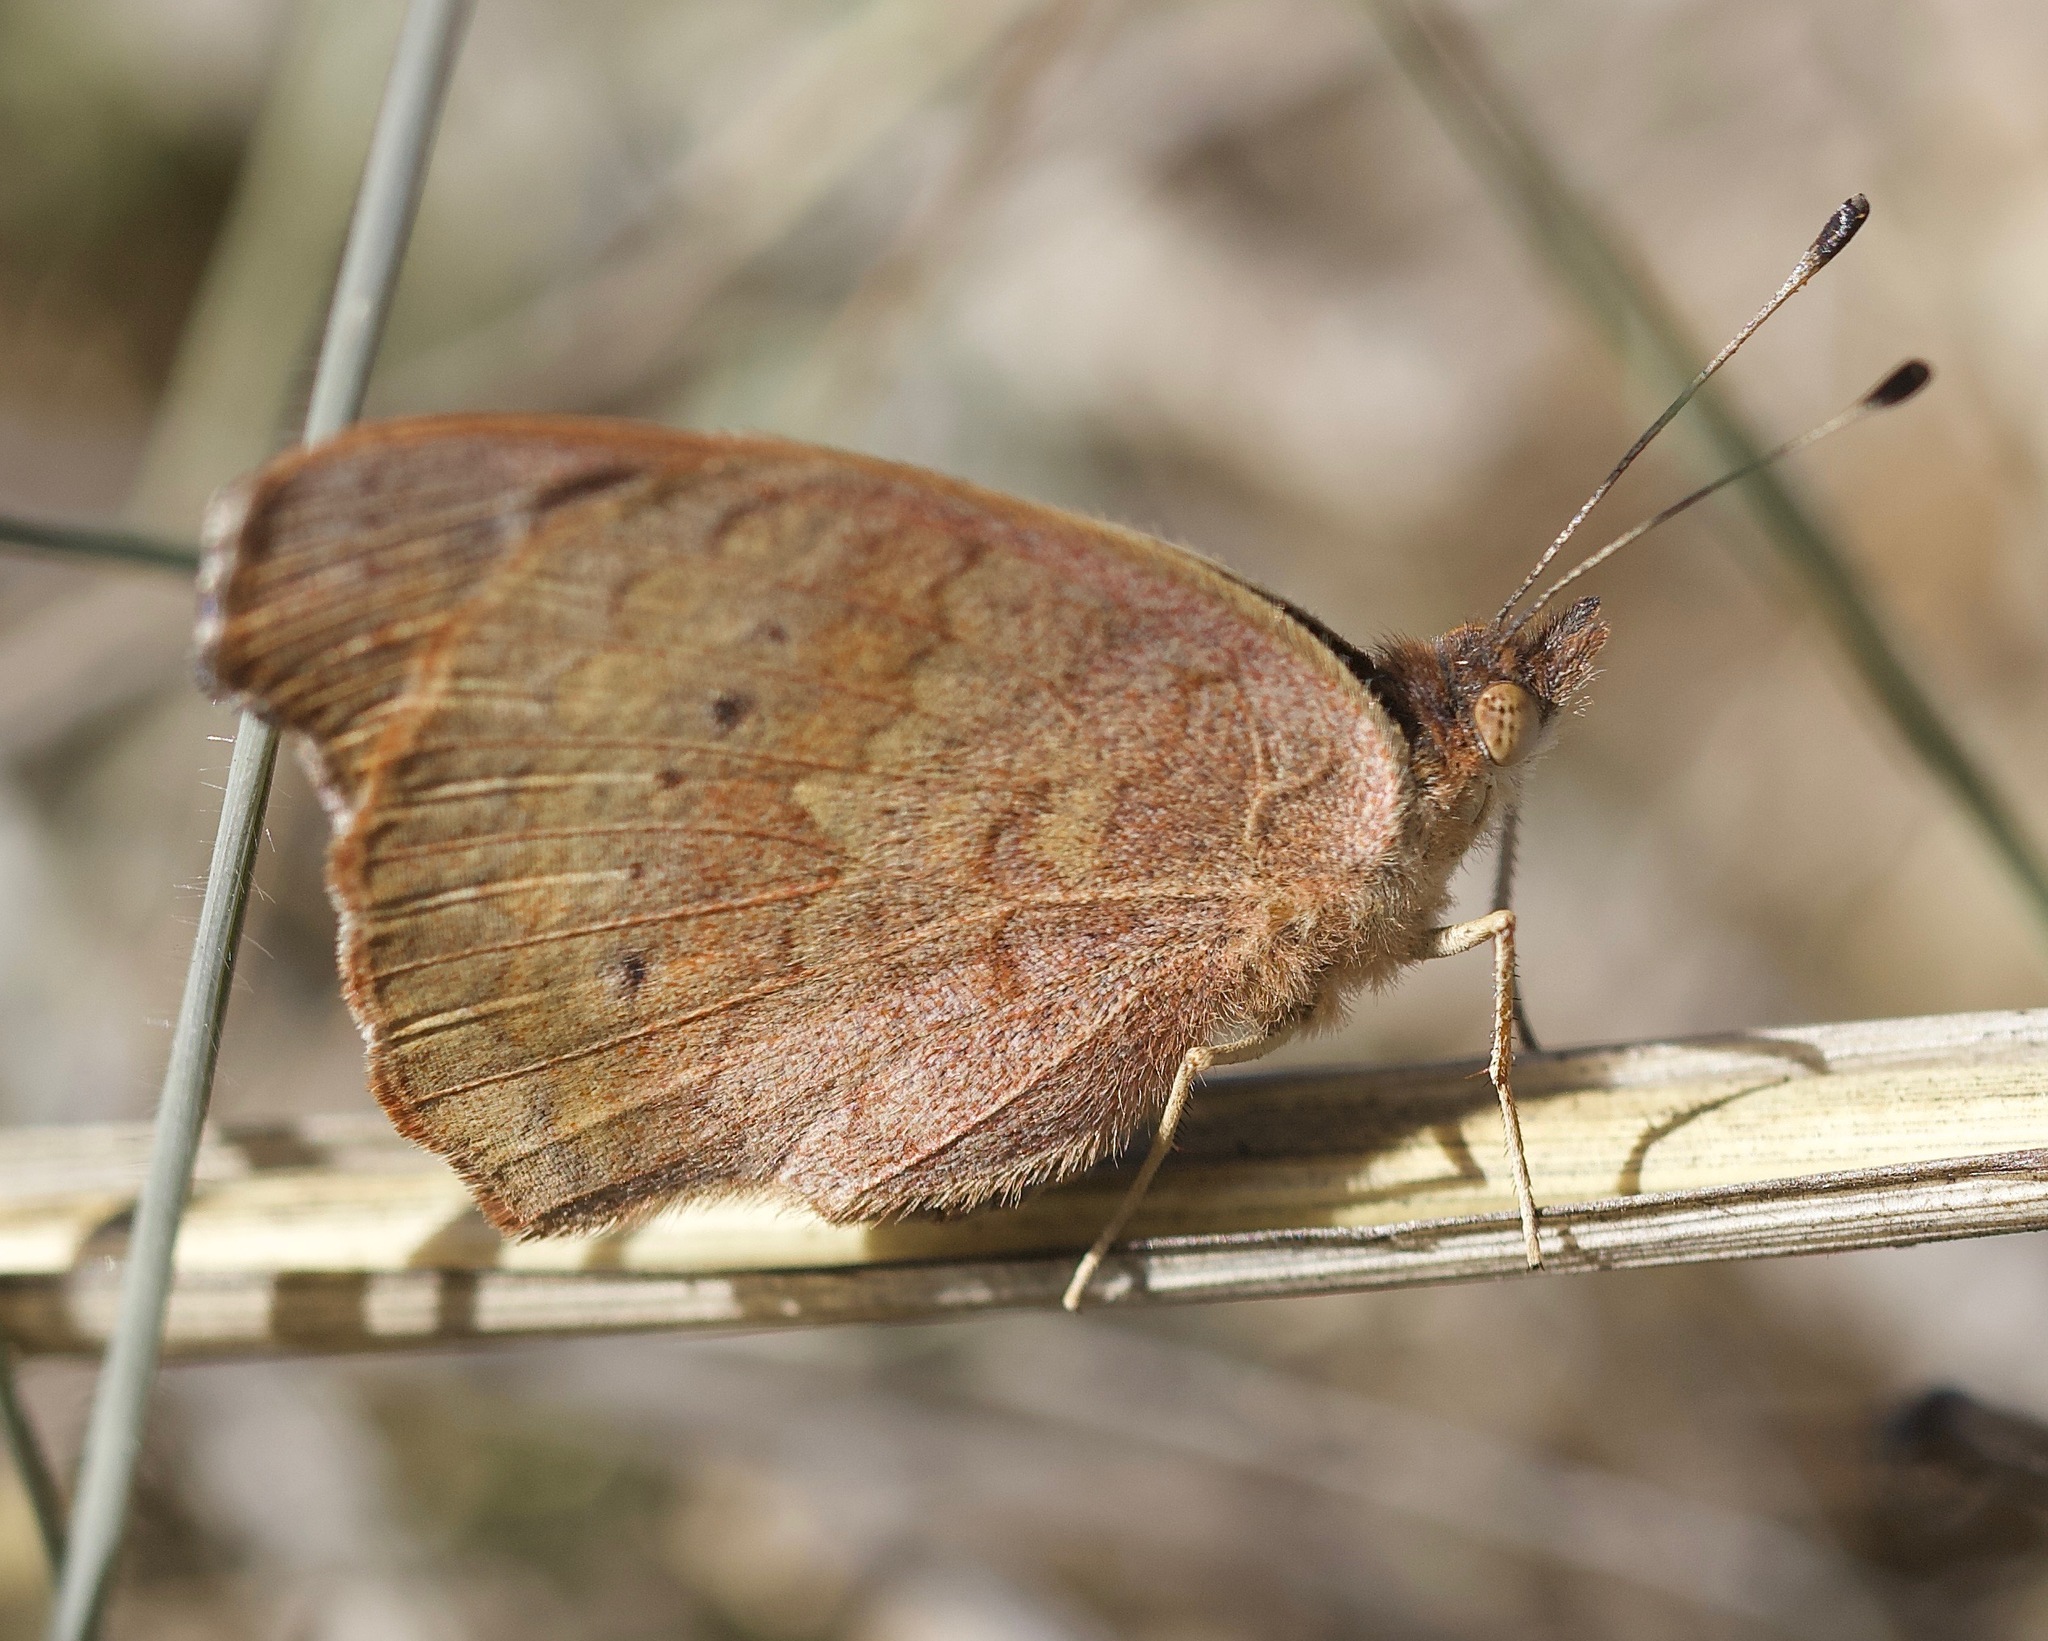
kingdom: Animalia
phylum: Arthropoda
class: Insecta
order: Lepidoptera
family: Nymphalidae
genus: Junonia
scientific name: Junonia grisea
